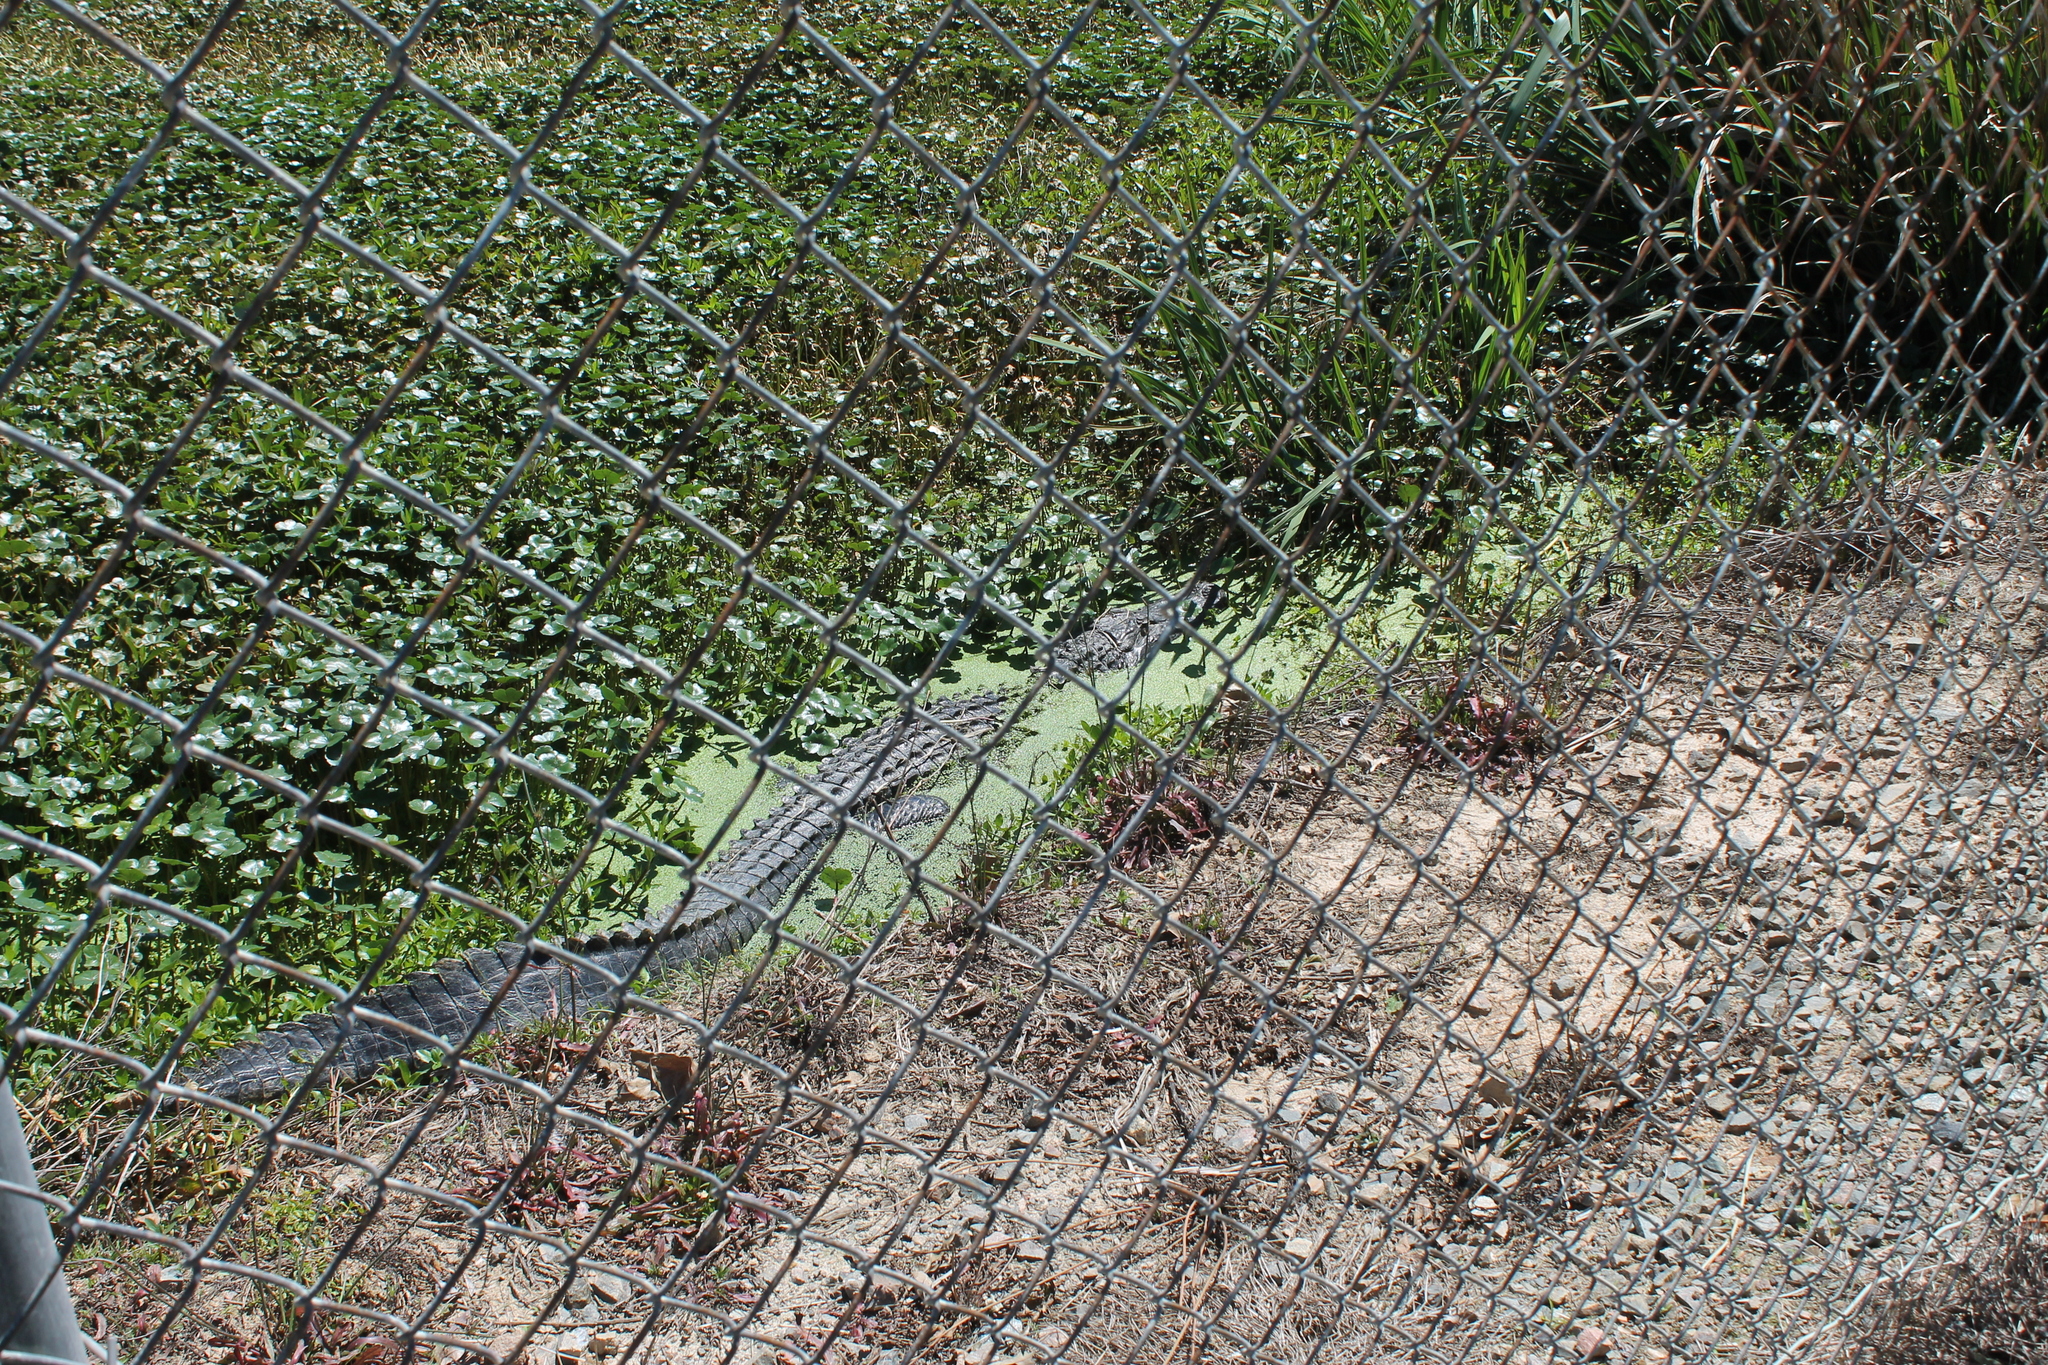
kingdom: Animalia
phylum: Chordata
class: Crocodylia
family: Alligatoridae
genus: Alligator
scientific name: Alligator mississippiensis
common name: American alligator
